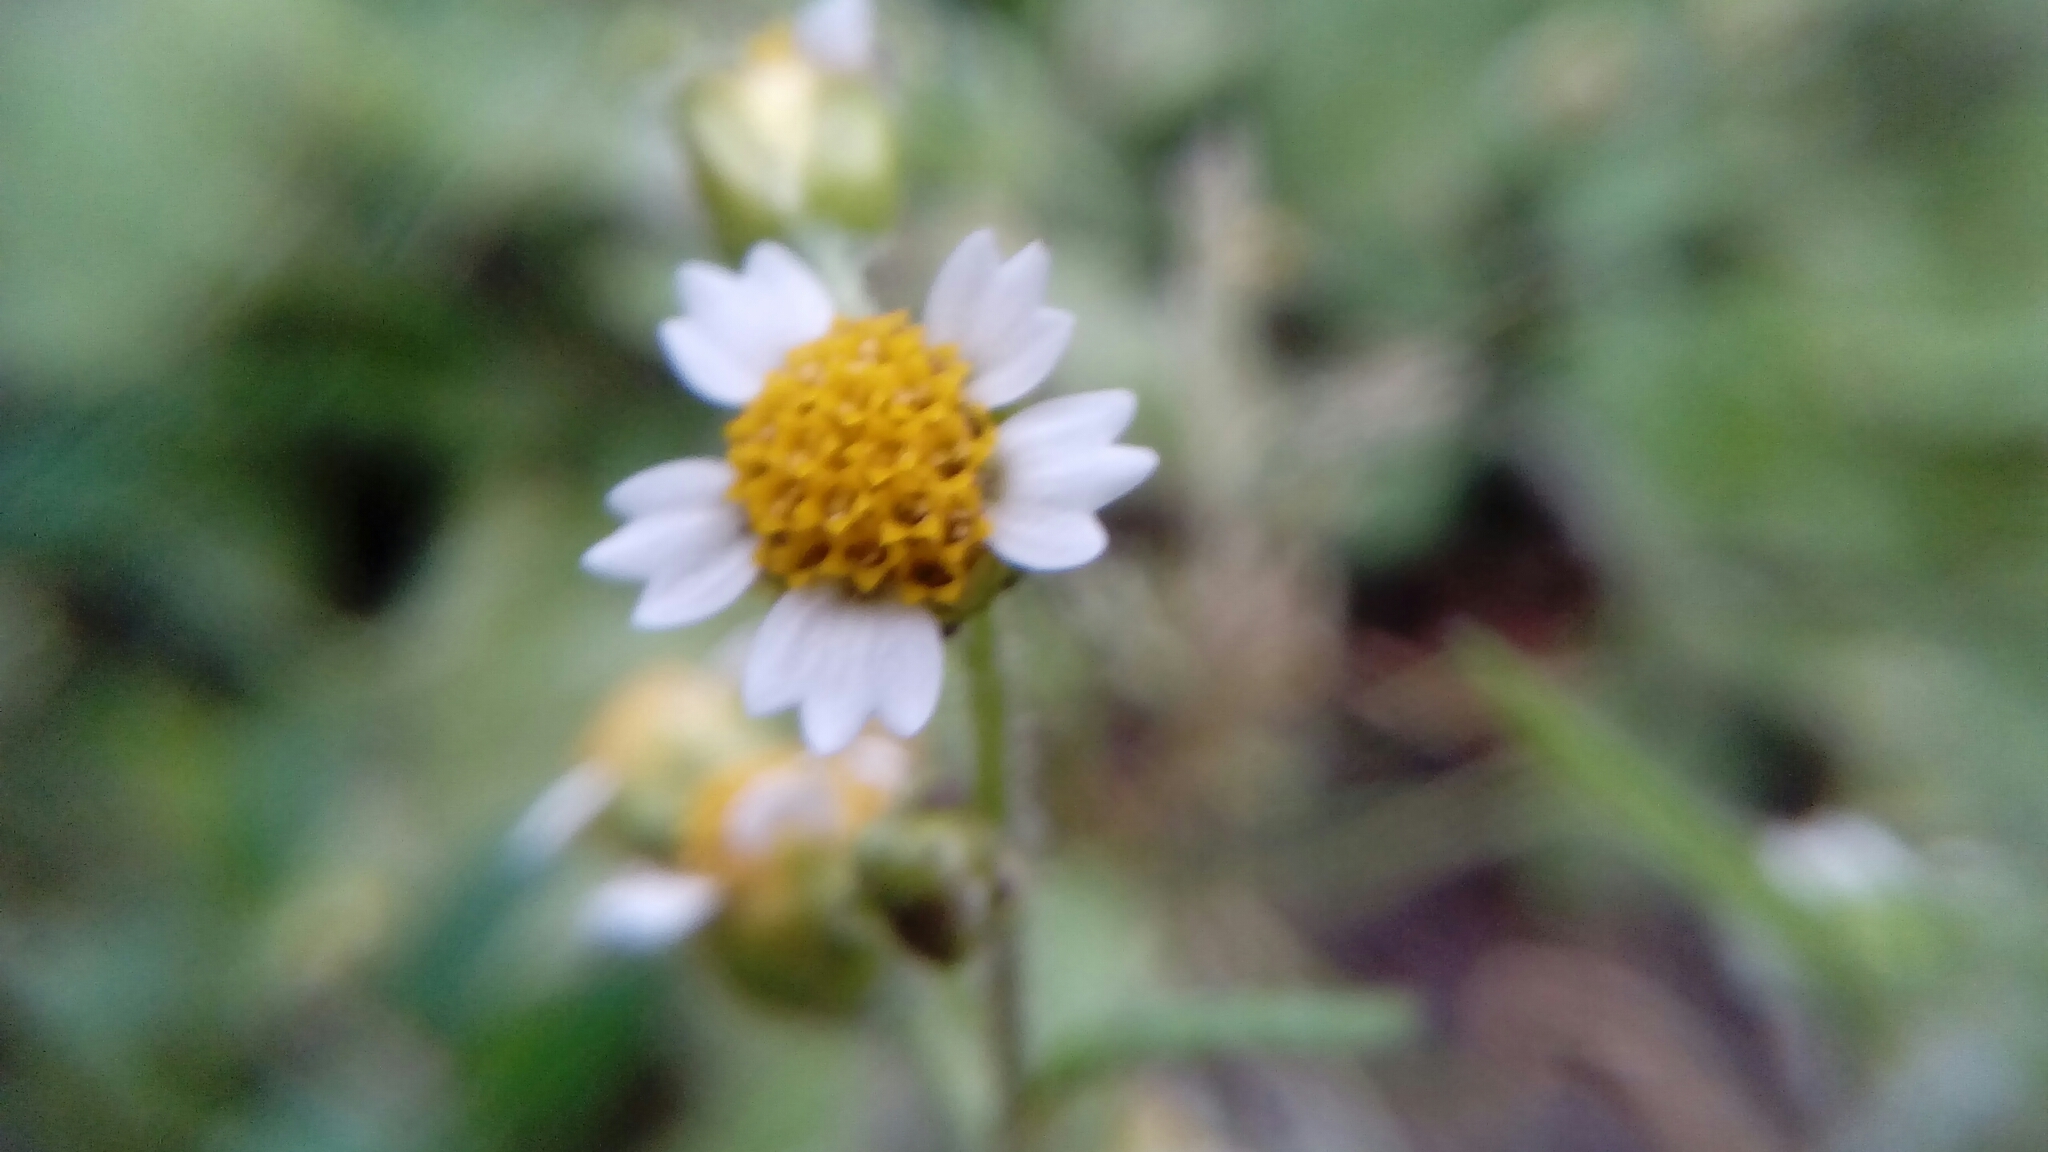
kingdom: Plantae
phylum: Tracheophyta
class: Magnoliopsida
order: Asterales
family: Asteraceae
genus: Galinsoga
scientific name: Galinsoga quadriradiata
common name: Shaggy soldier
